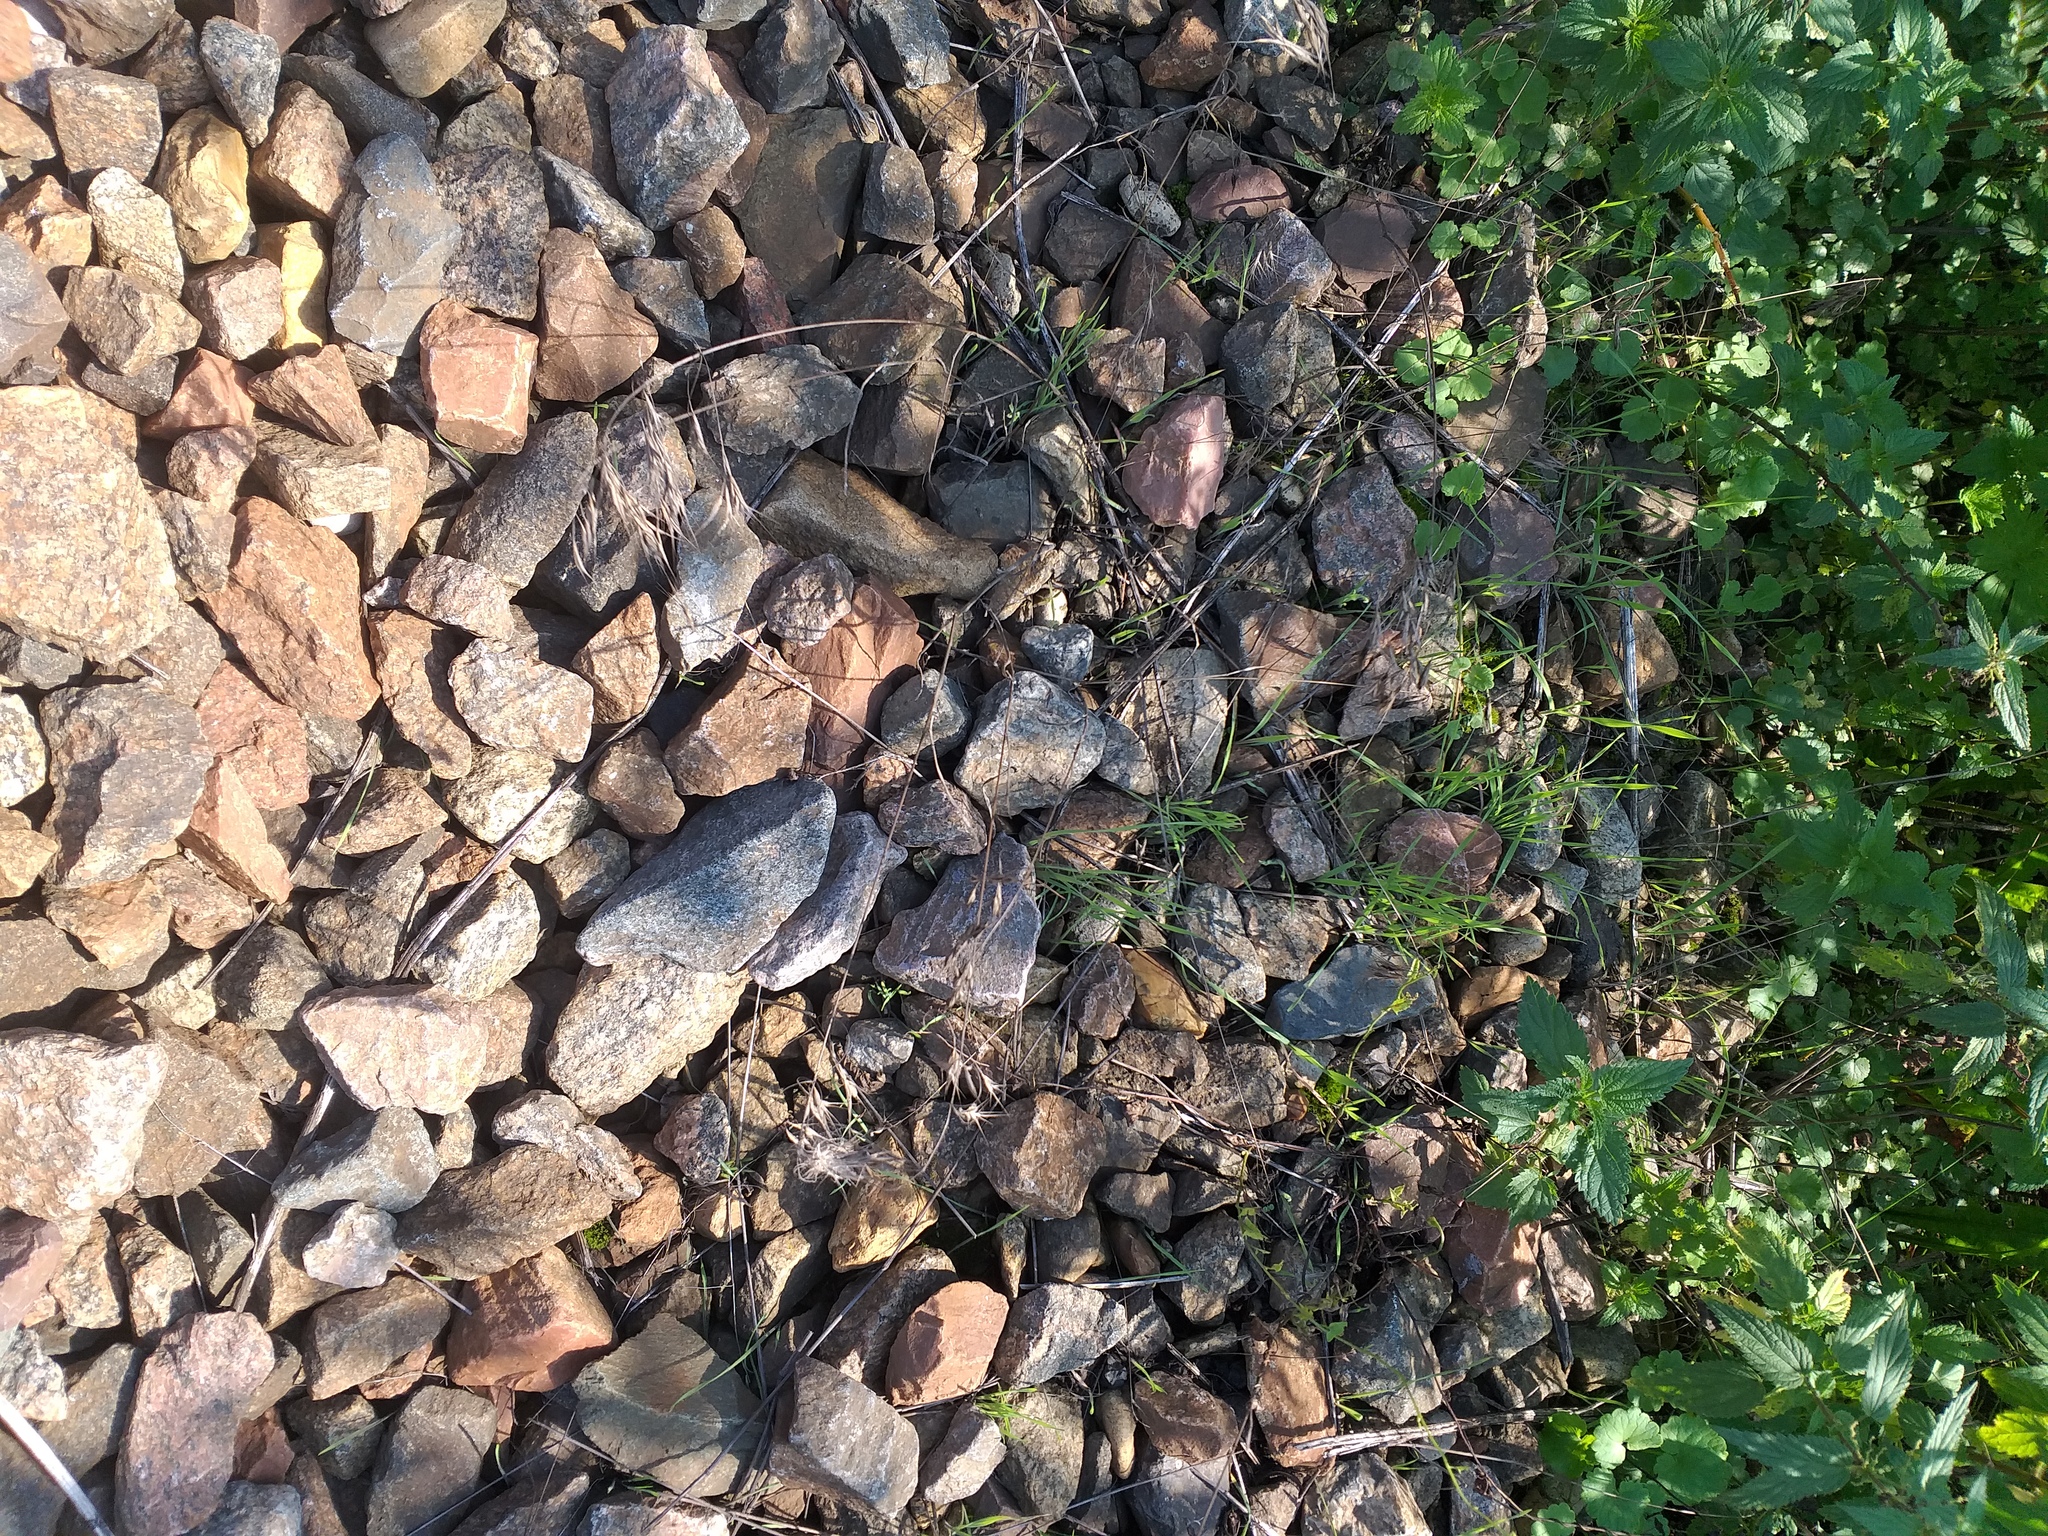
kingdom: Plantae
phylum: Tracheophyta
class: Liliopsida
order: Poales
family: Poaceae
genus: Bromus
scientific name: Bromus tectorum
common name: Cheatgrass
